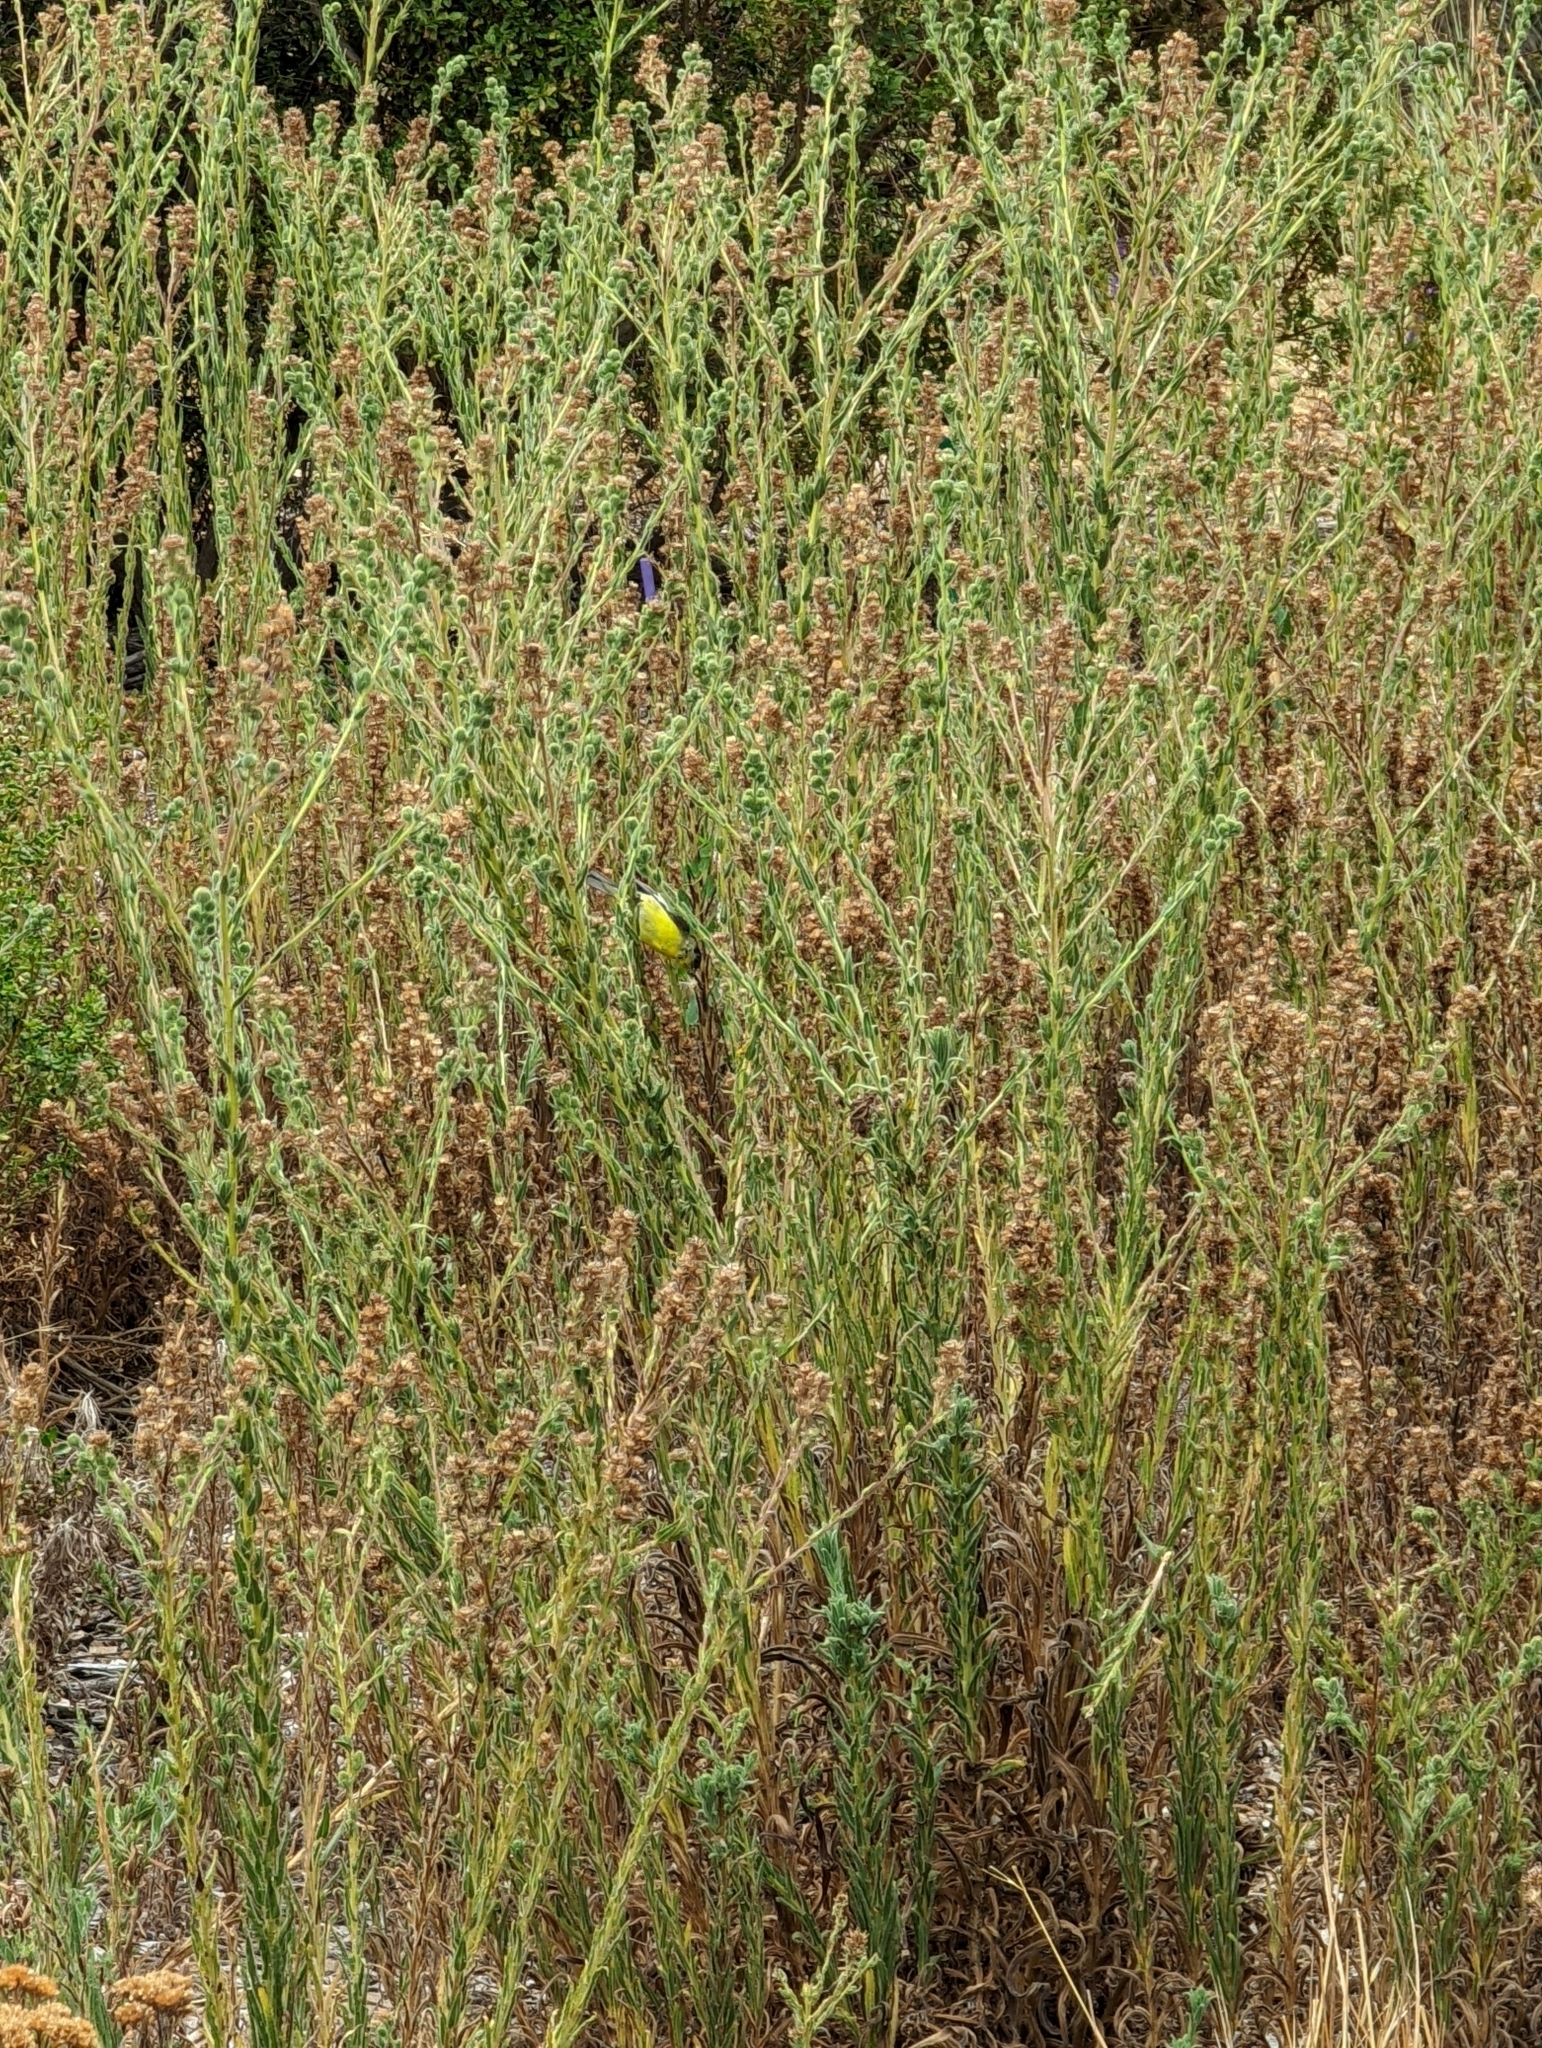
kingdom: Animalia
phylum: Chordata
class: Aves
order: Passeriformes
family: Fringillidae
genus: Spinus
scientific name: Spinus psaltria
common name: Lesser goldfinch
